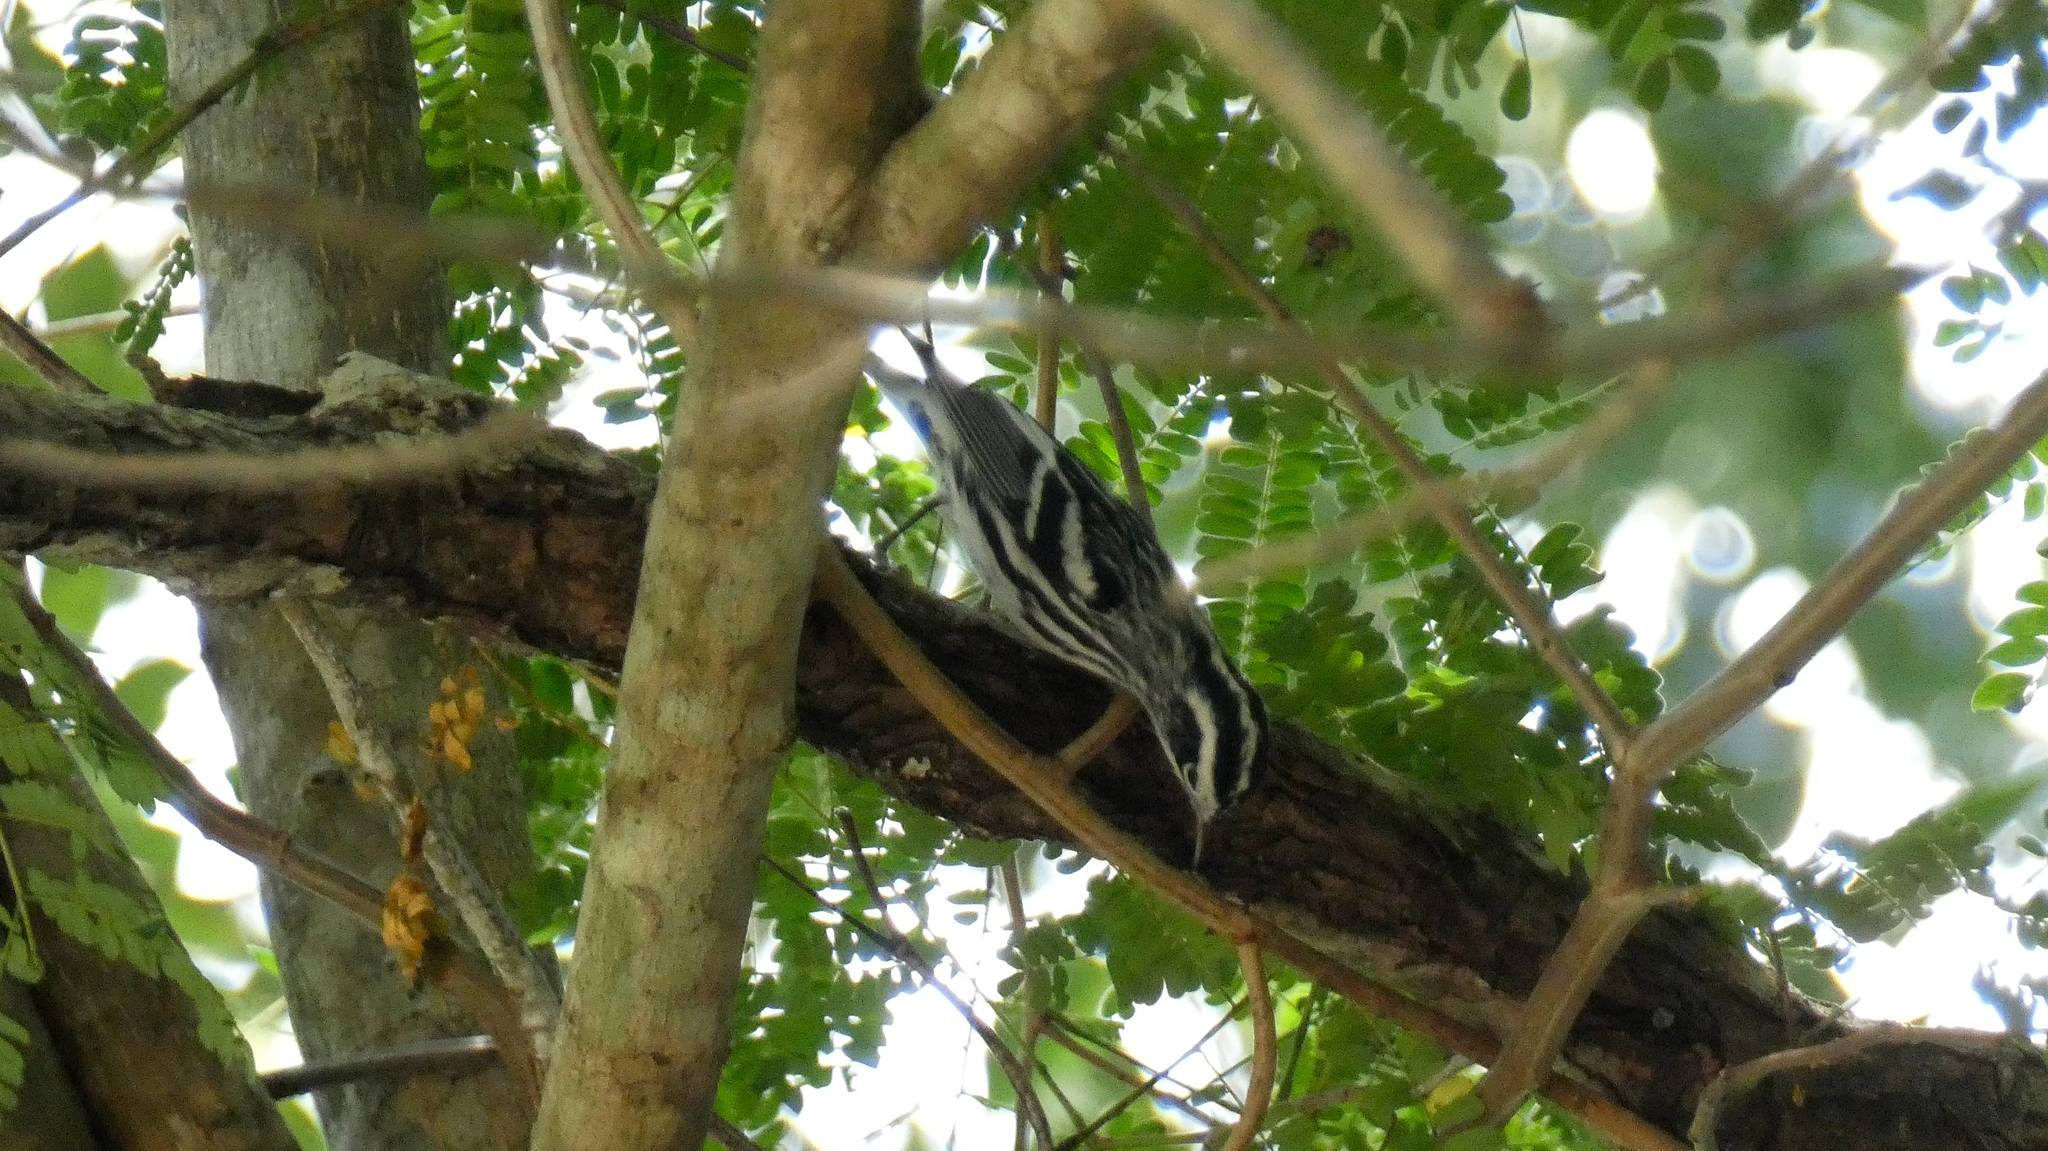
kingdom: Animalia
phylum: Chordata
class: Aves
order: Passeriformes
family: Parulidae
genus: Mniotilta
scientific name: Mniotilta varia
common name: Black-and-white warbler
